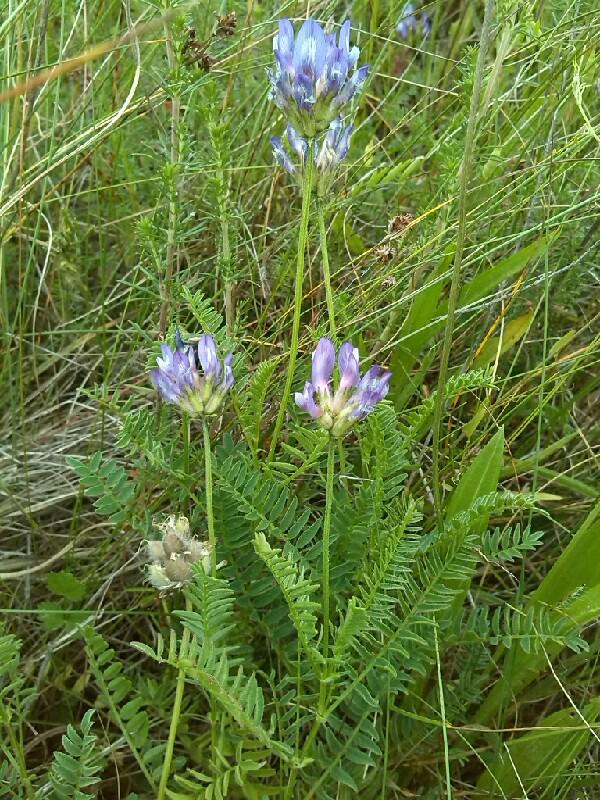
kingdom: Plantae
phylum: Tracheophyta
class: Magnoliopsida
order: Fabales
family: Fabaceae
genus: Astragalus
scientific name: Astragalus danicus
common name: Purple milk-vetch
